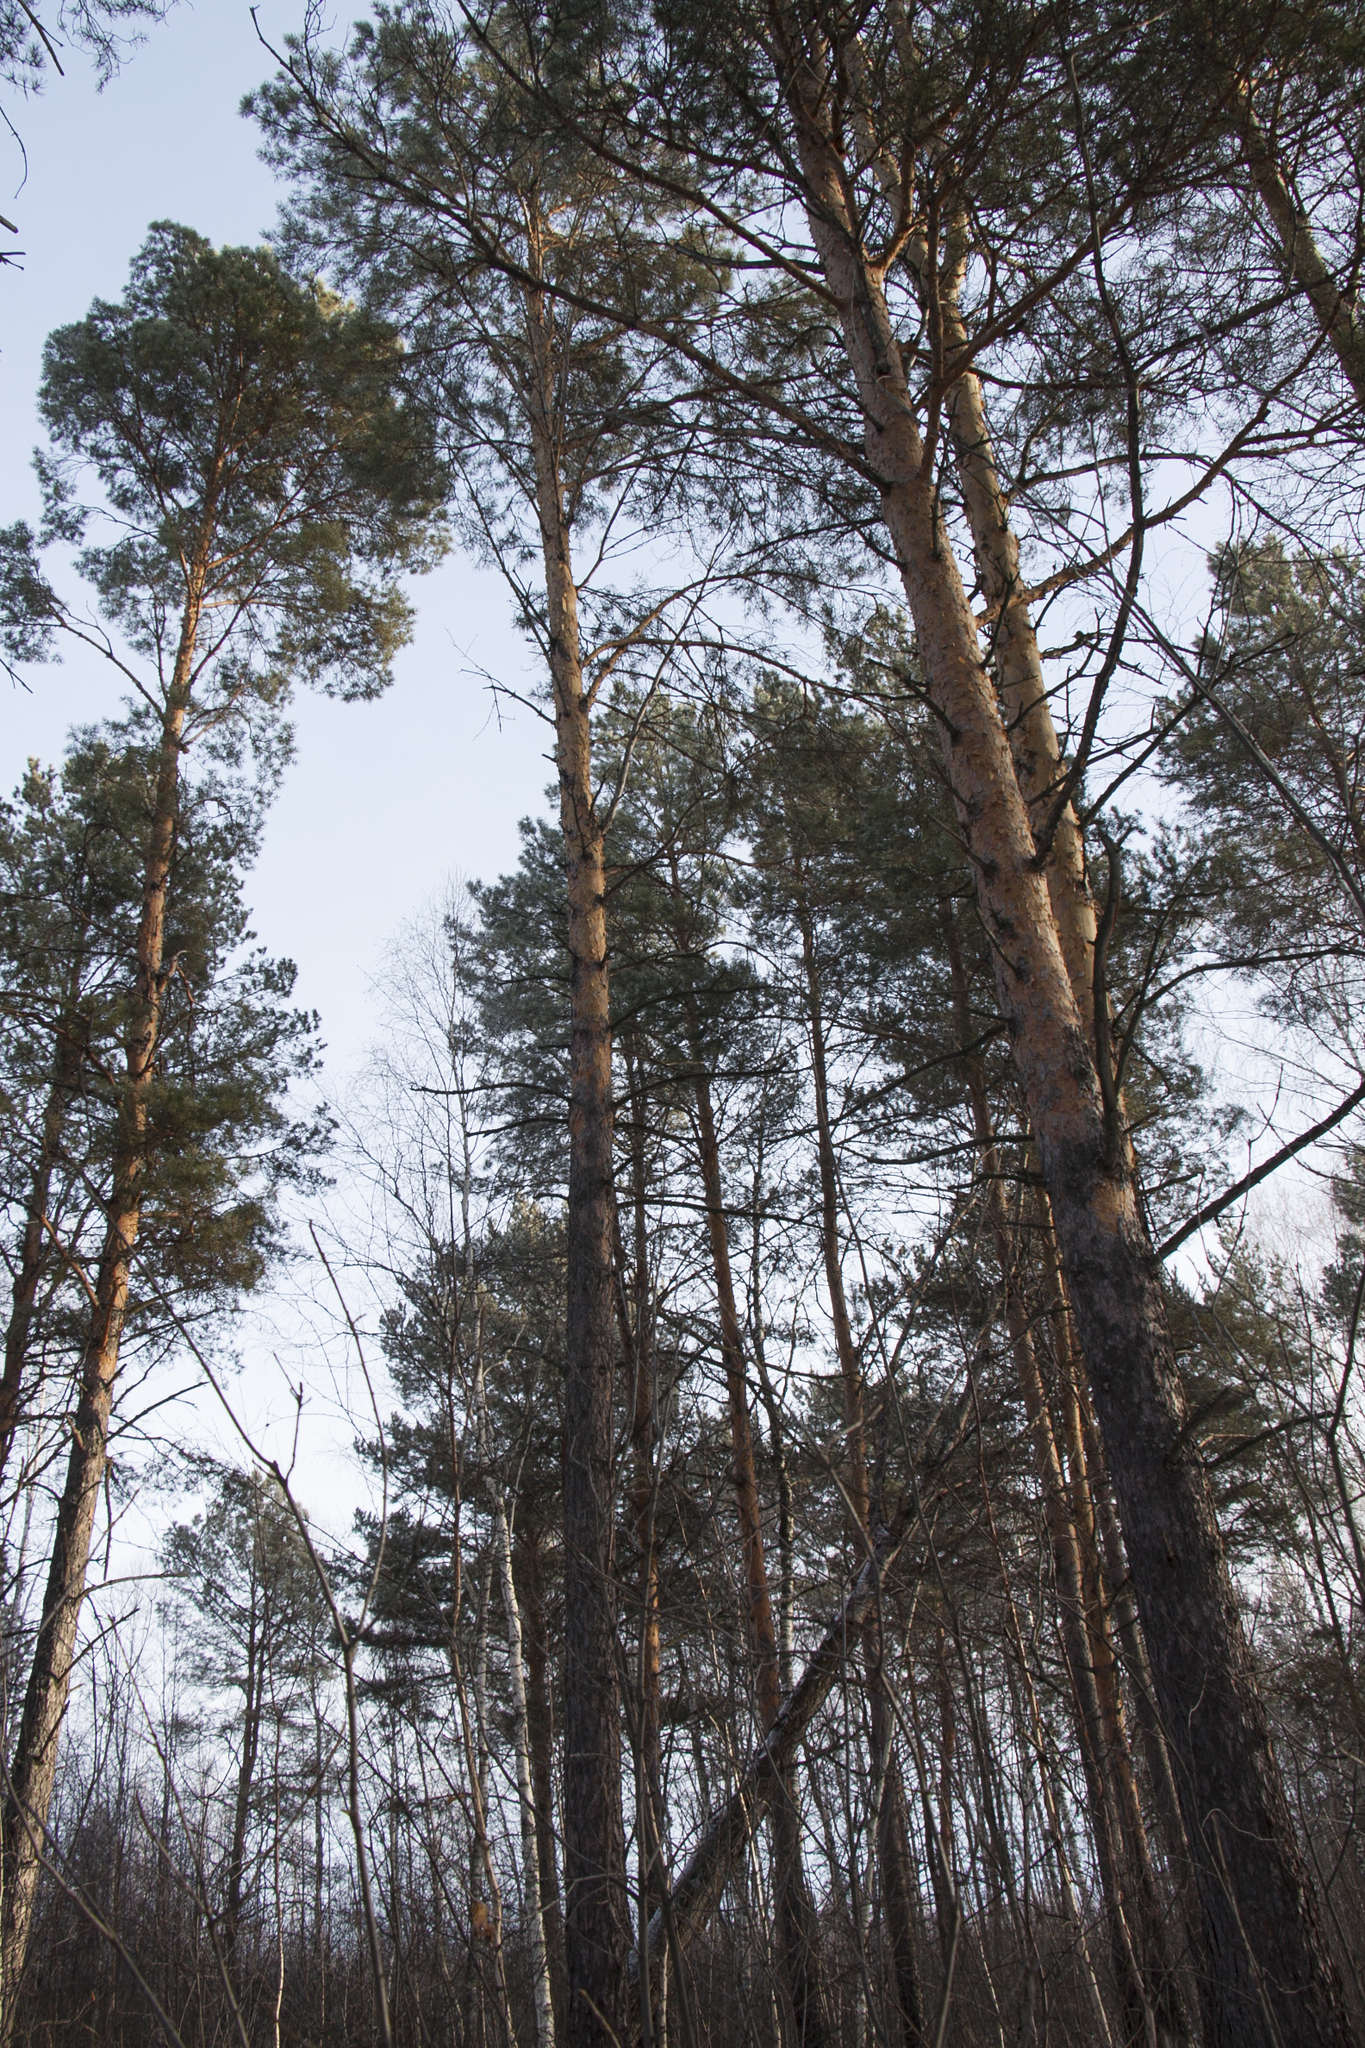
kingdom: Plantae
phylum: Tracheophyta
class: Pinopsida
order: Pinales
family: Pinaceae
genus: Pinus
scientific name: Pinus sylvestris
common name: Scots pine
